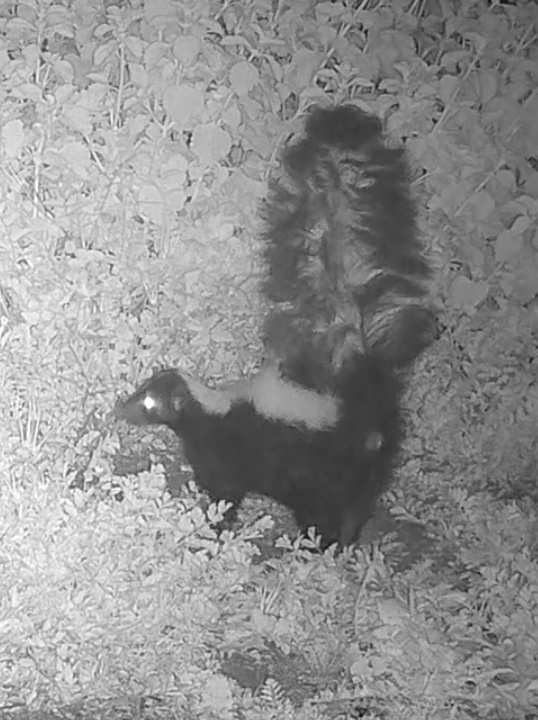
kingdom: Animalia
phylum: Chordata
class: Mammalia
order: Carnivora
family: Mephitidae
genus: Mephitis
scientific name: Mephitis mephitis
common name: Striped skunk
